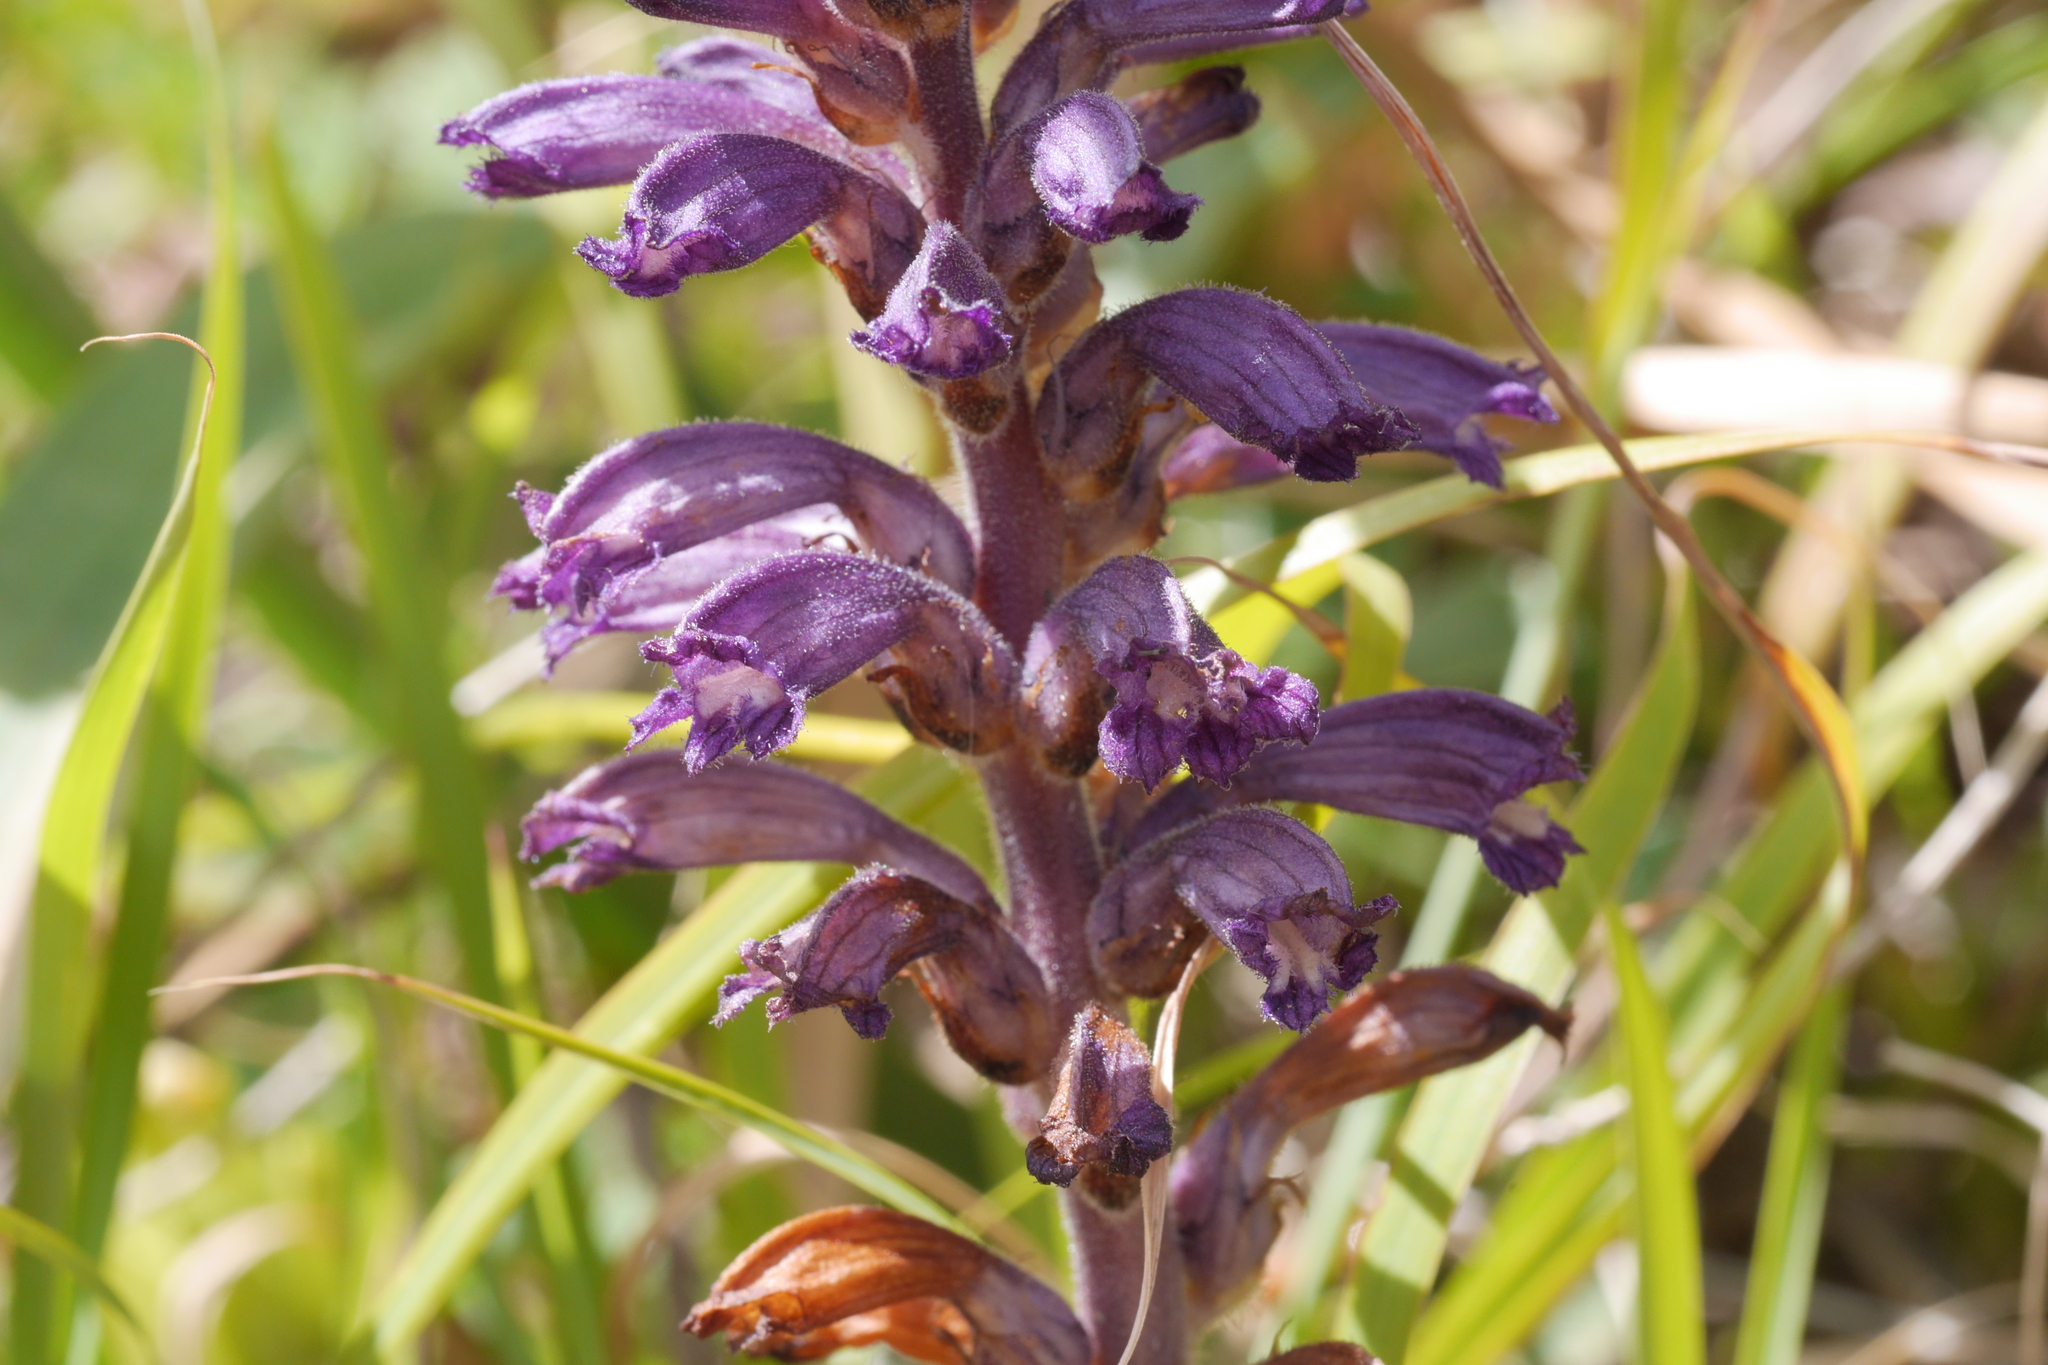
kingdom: Plantae
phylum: Tracheophyta
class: Magnoliopsida
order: Lamiales
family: Orobanchaceae
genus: Phelipanche
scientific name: Phelipanche lavandulacea
